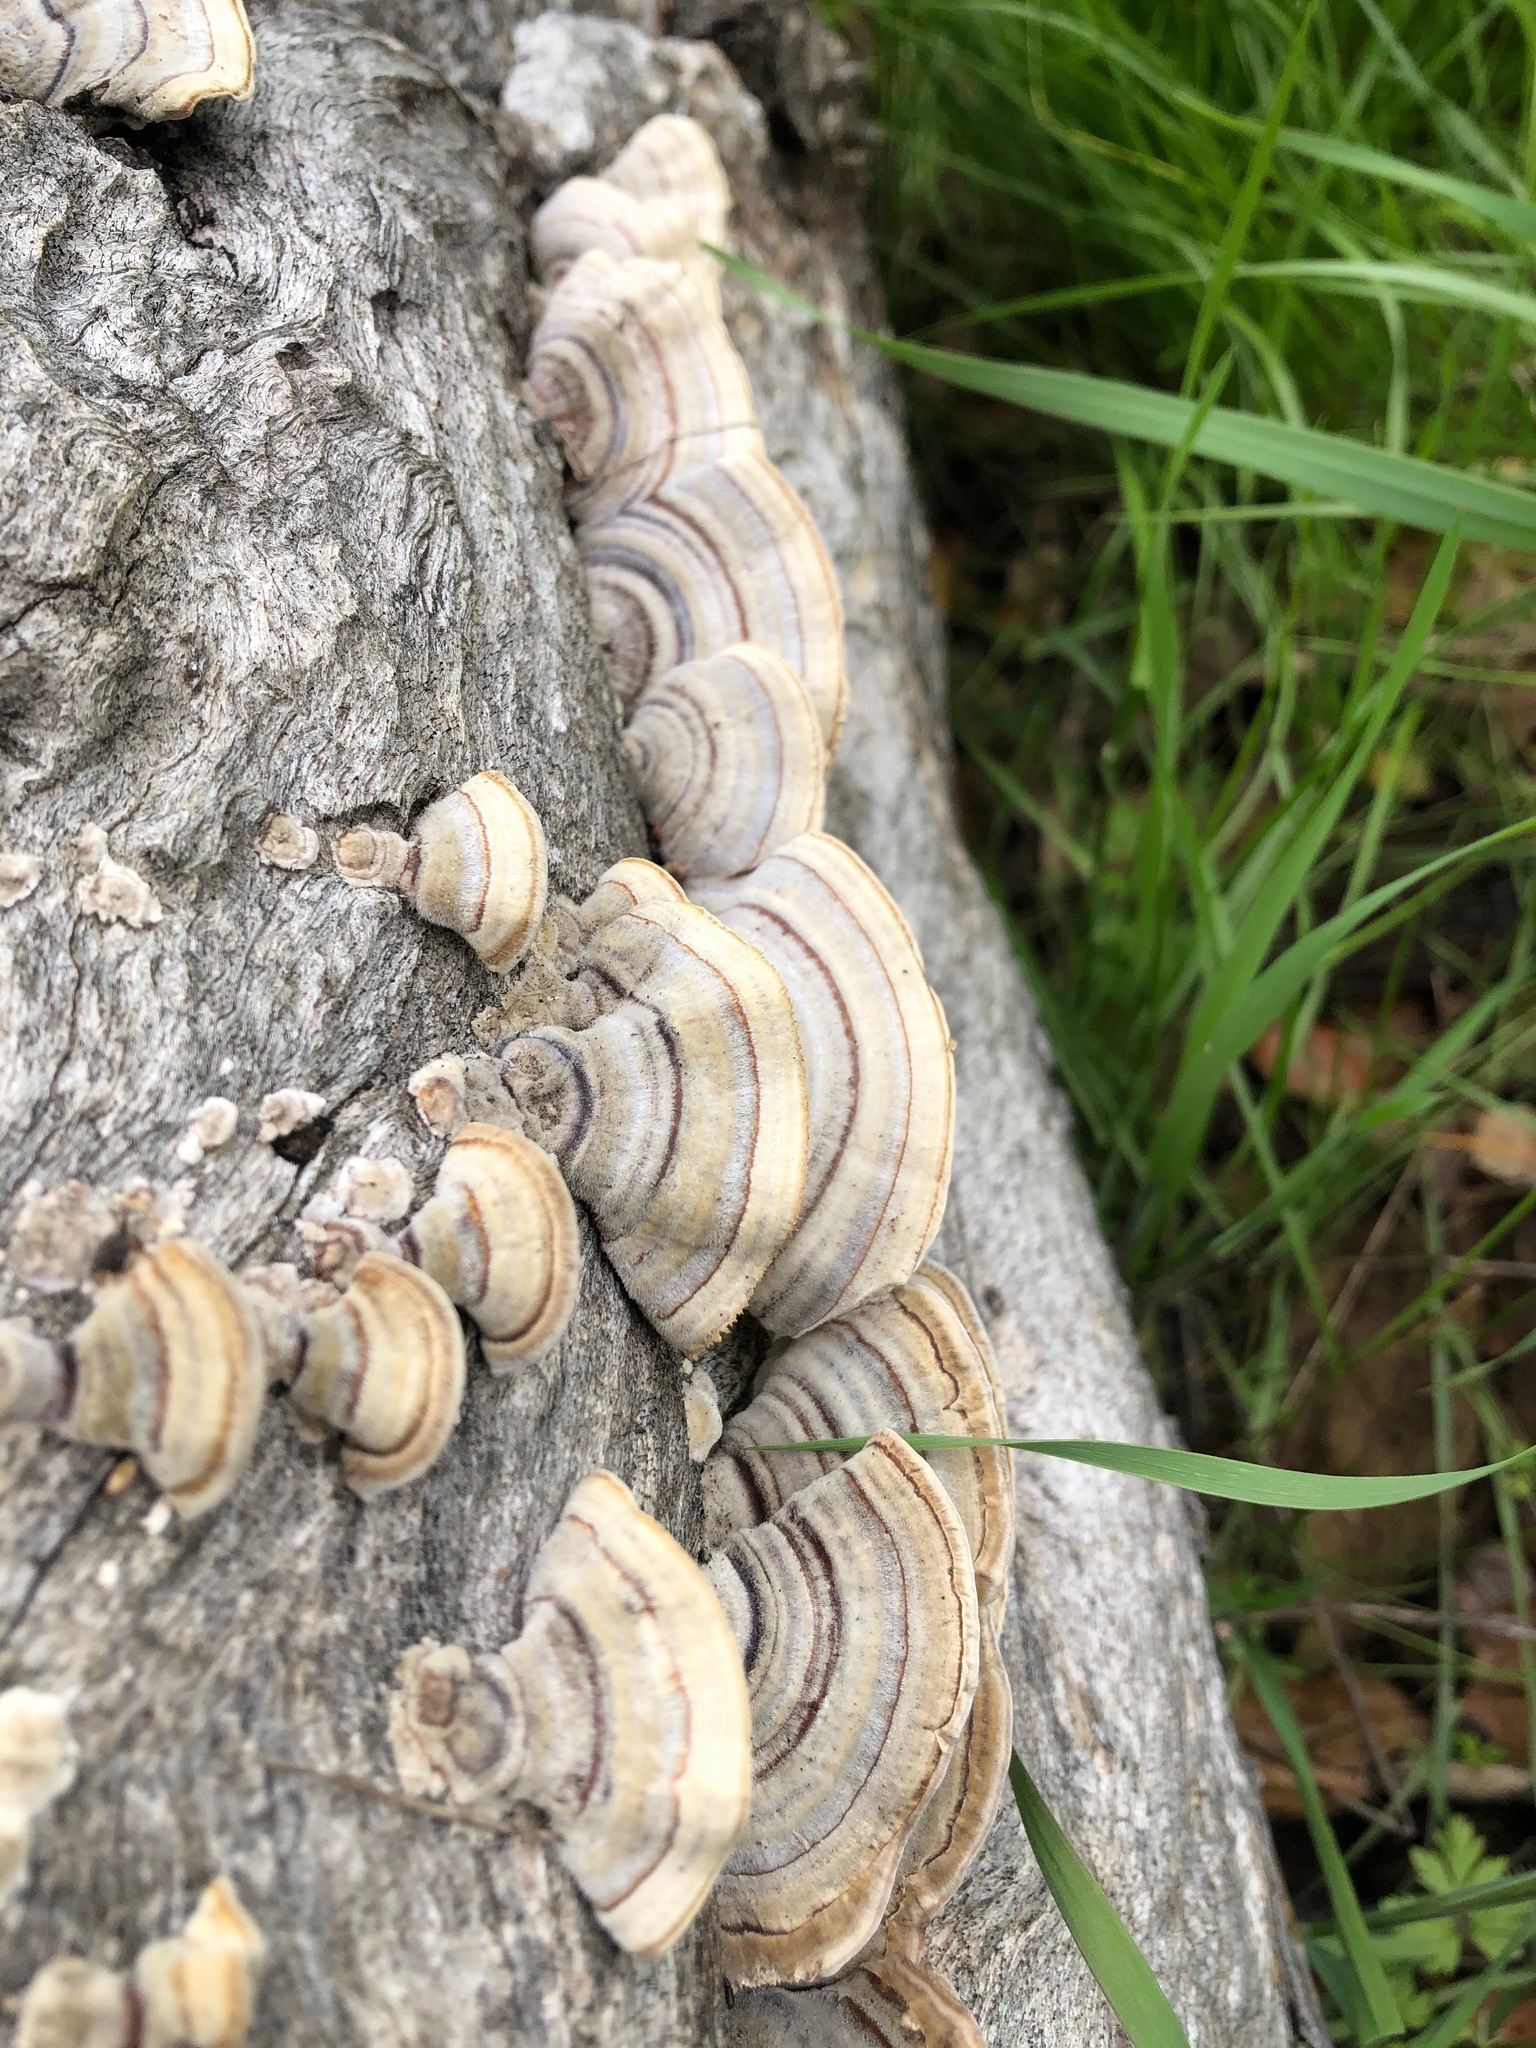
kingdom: Fungi
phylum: Basidiomycota
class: Agaricomycetes
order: Polyporales
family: Polyporaceae
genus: Trametes
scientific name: Trametes versicolor
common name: Turkeytail
